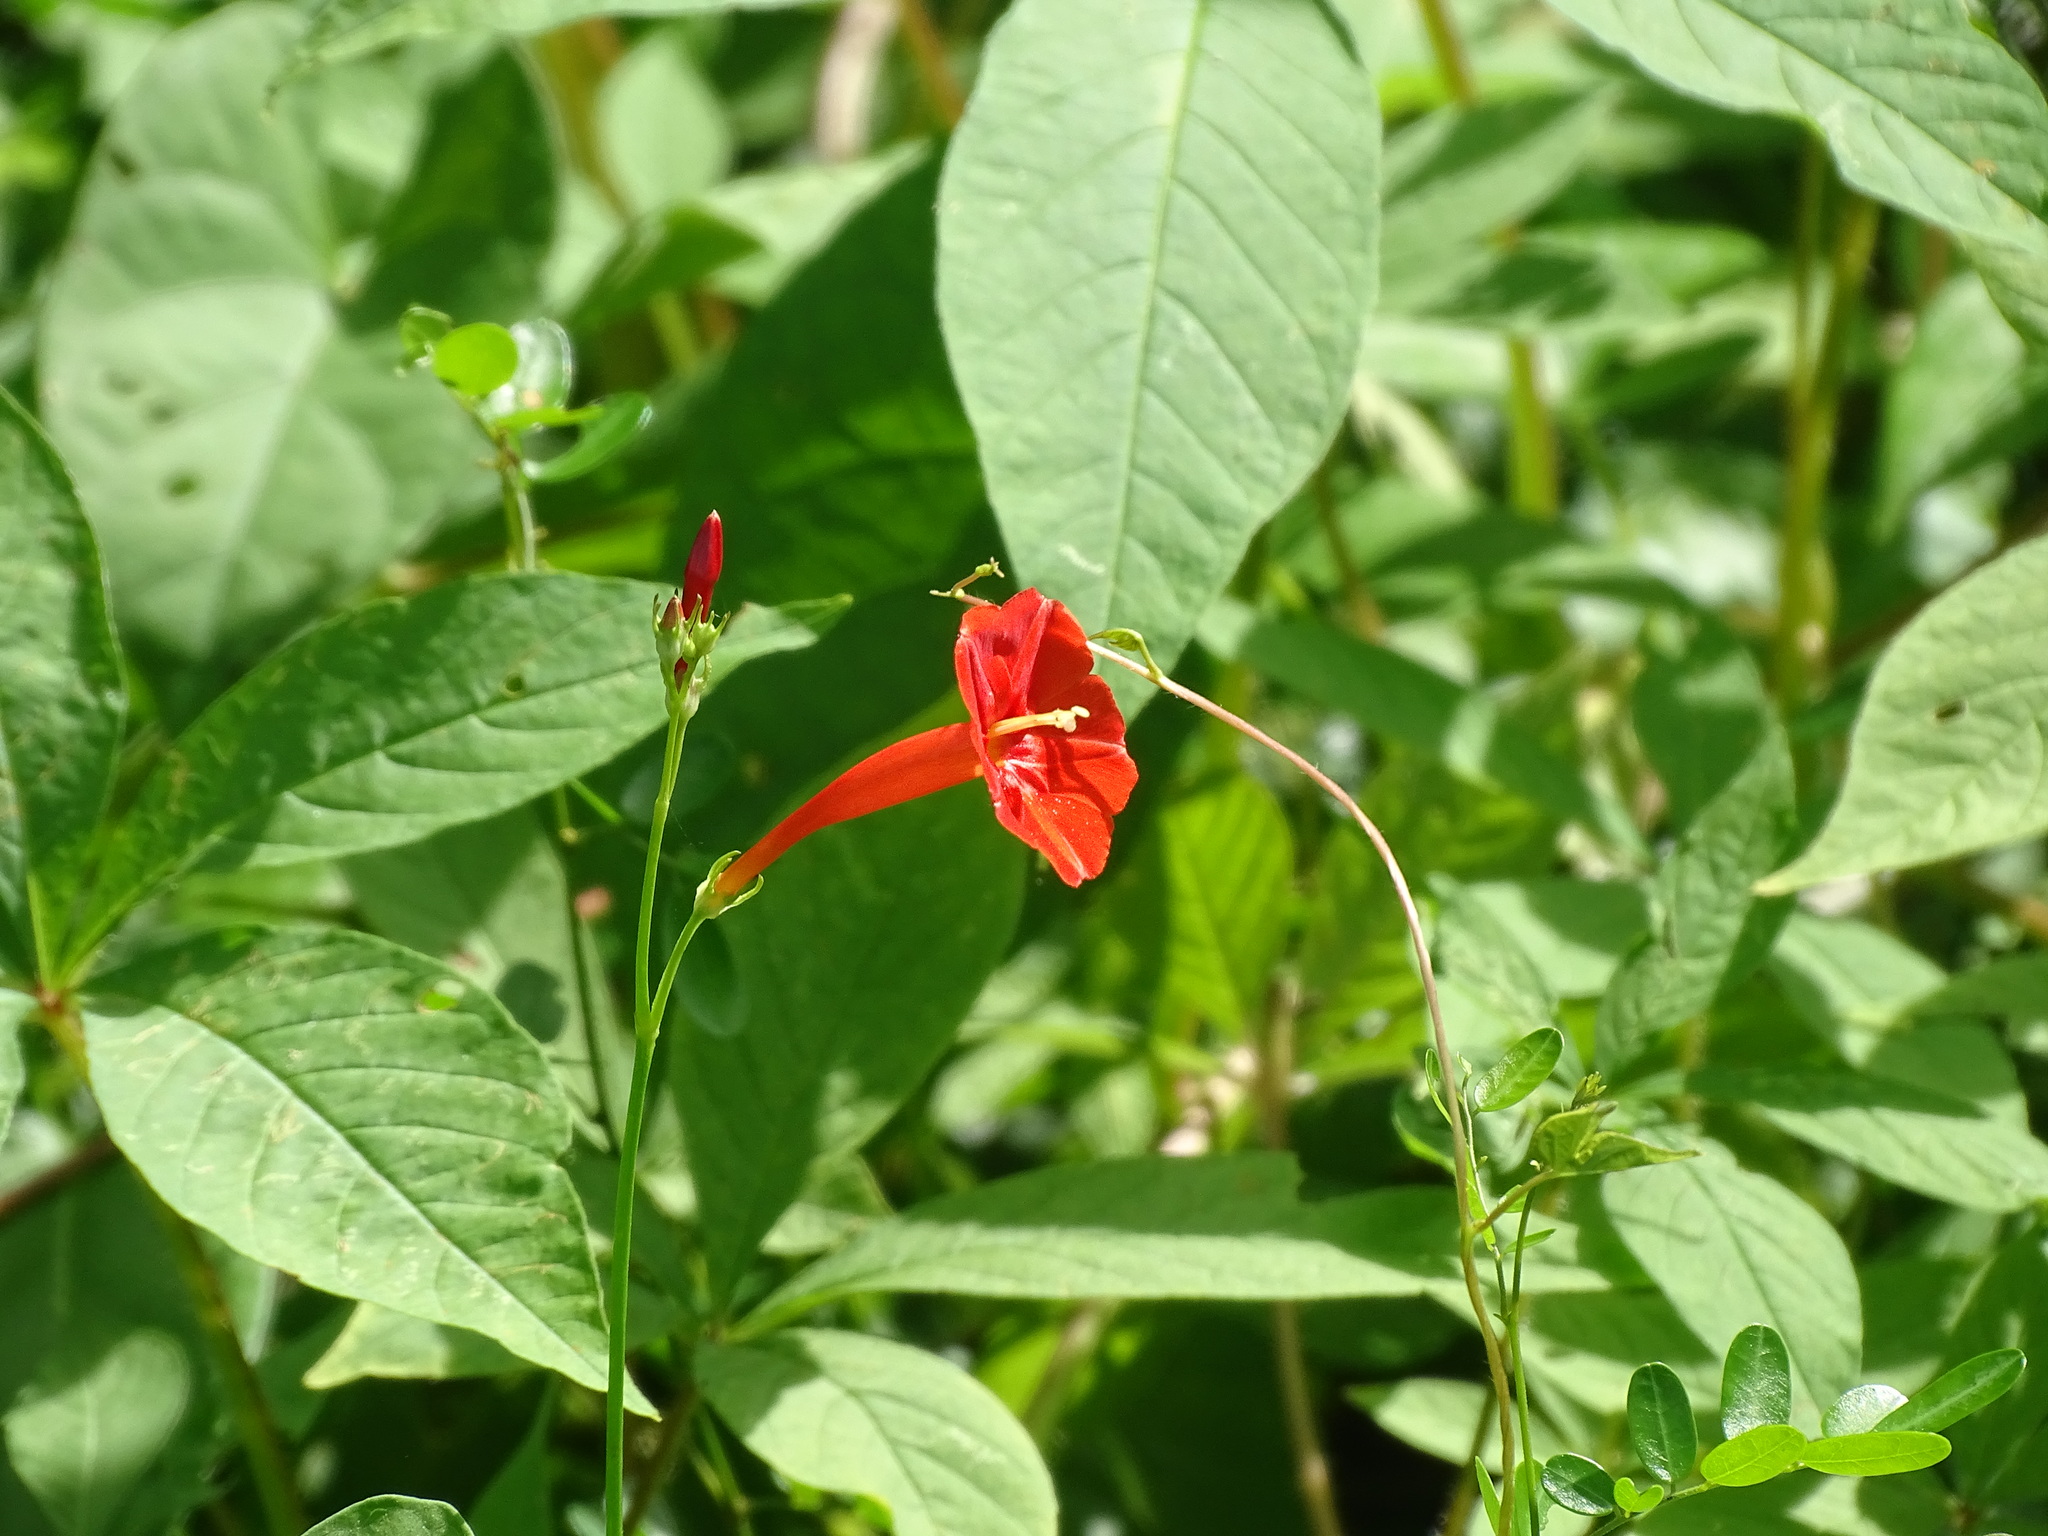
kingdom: Plantae
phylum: Tracheophyta
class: Magnoliopsida
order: Solanales
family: Convolvulaceae
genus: Ipomoea
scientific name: Ipomoea hederifolia
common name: Ivy-leaf morning-glory
